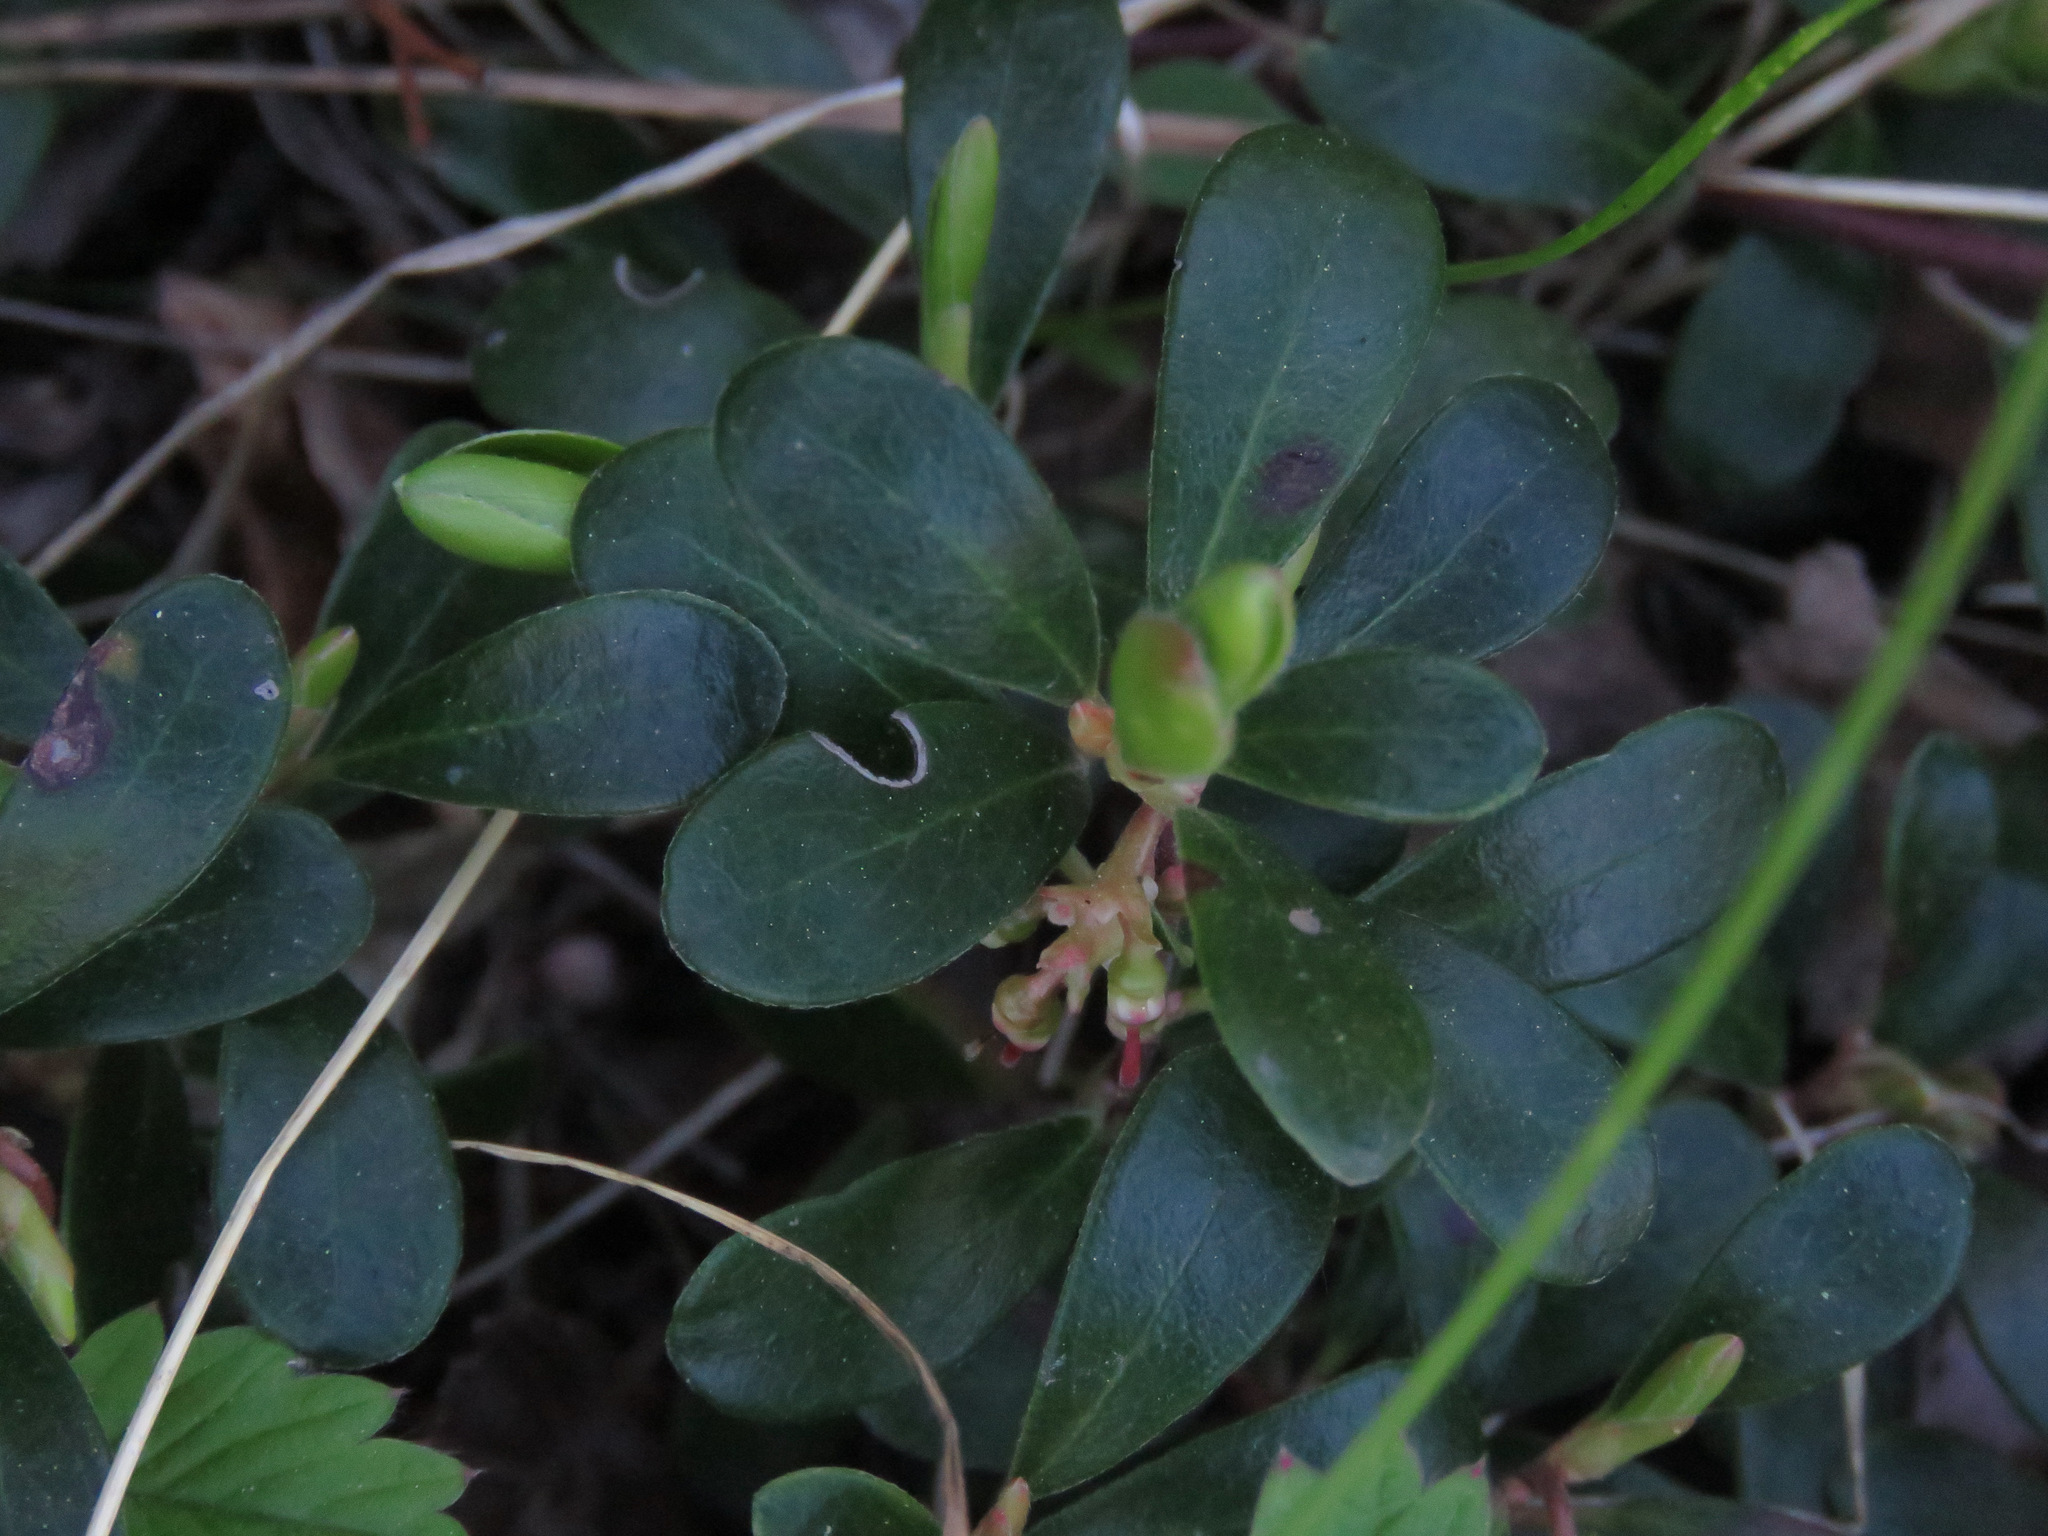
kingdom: Plantae
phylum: Tracheophyta
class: Magnoliopsida
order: Ericales
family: Ericaceae
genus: Arctostaphylos
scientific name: Arctostaphylos uva-ursi
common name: Bearberry
